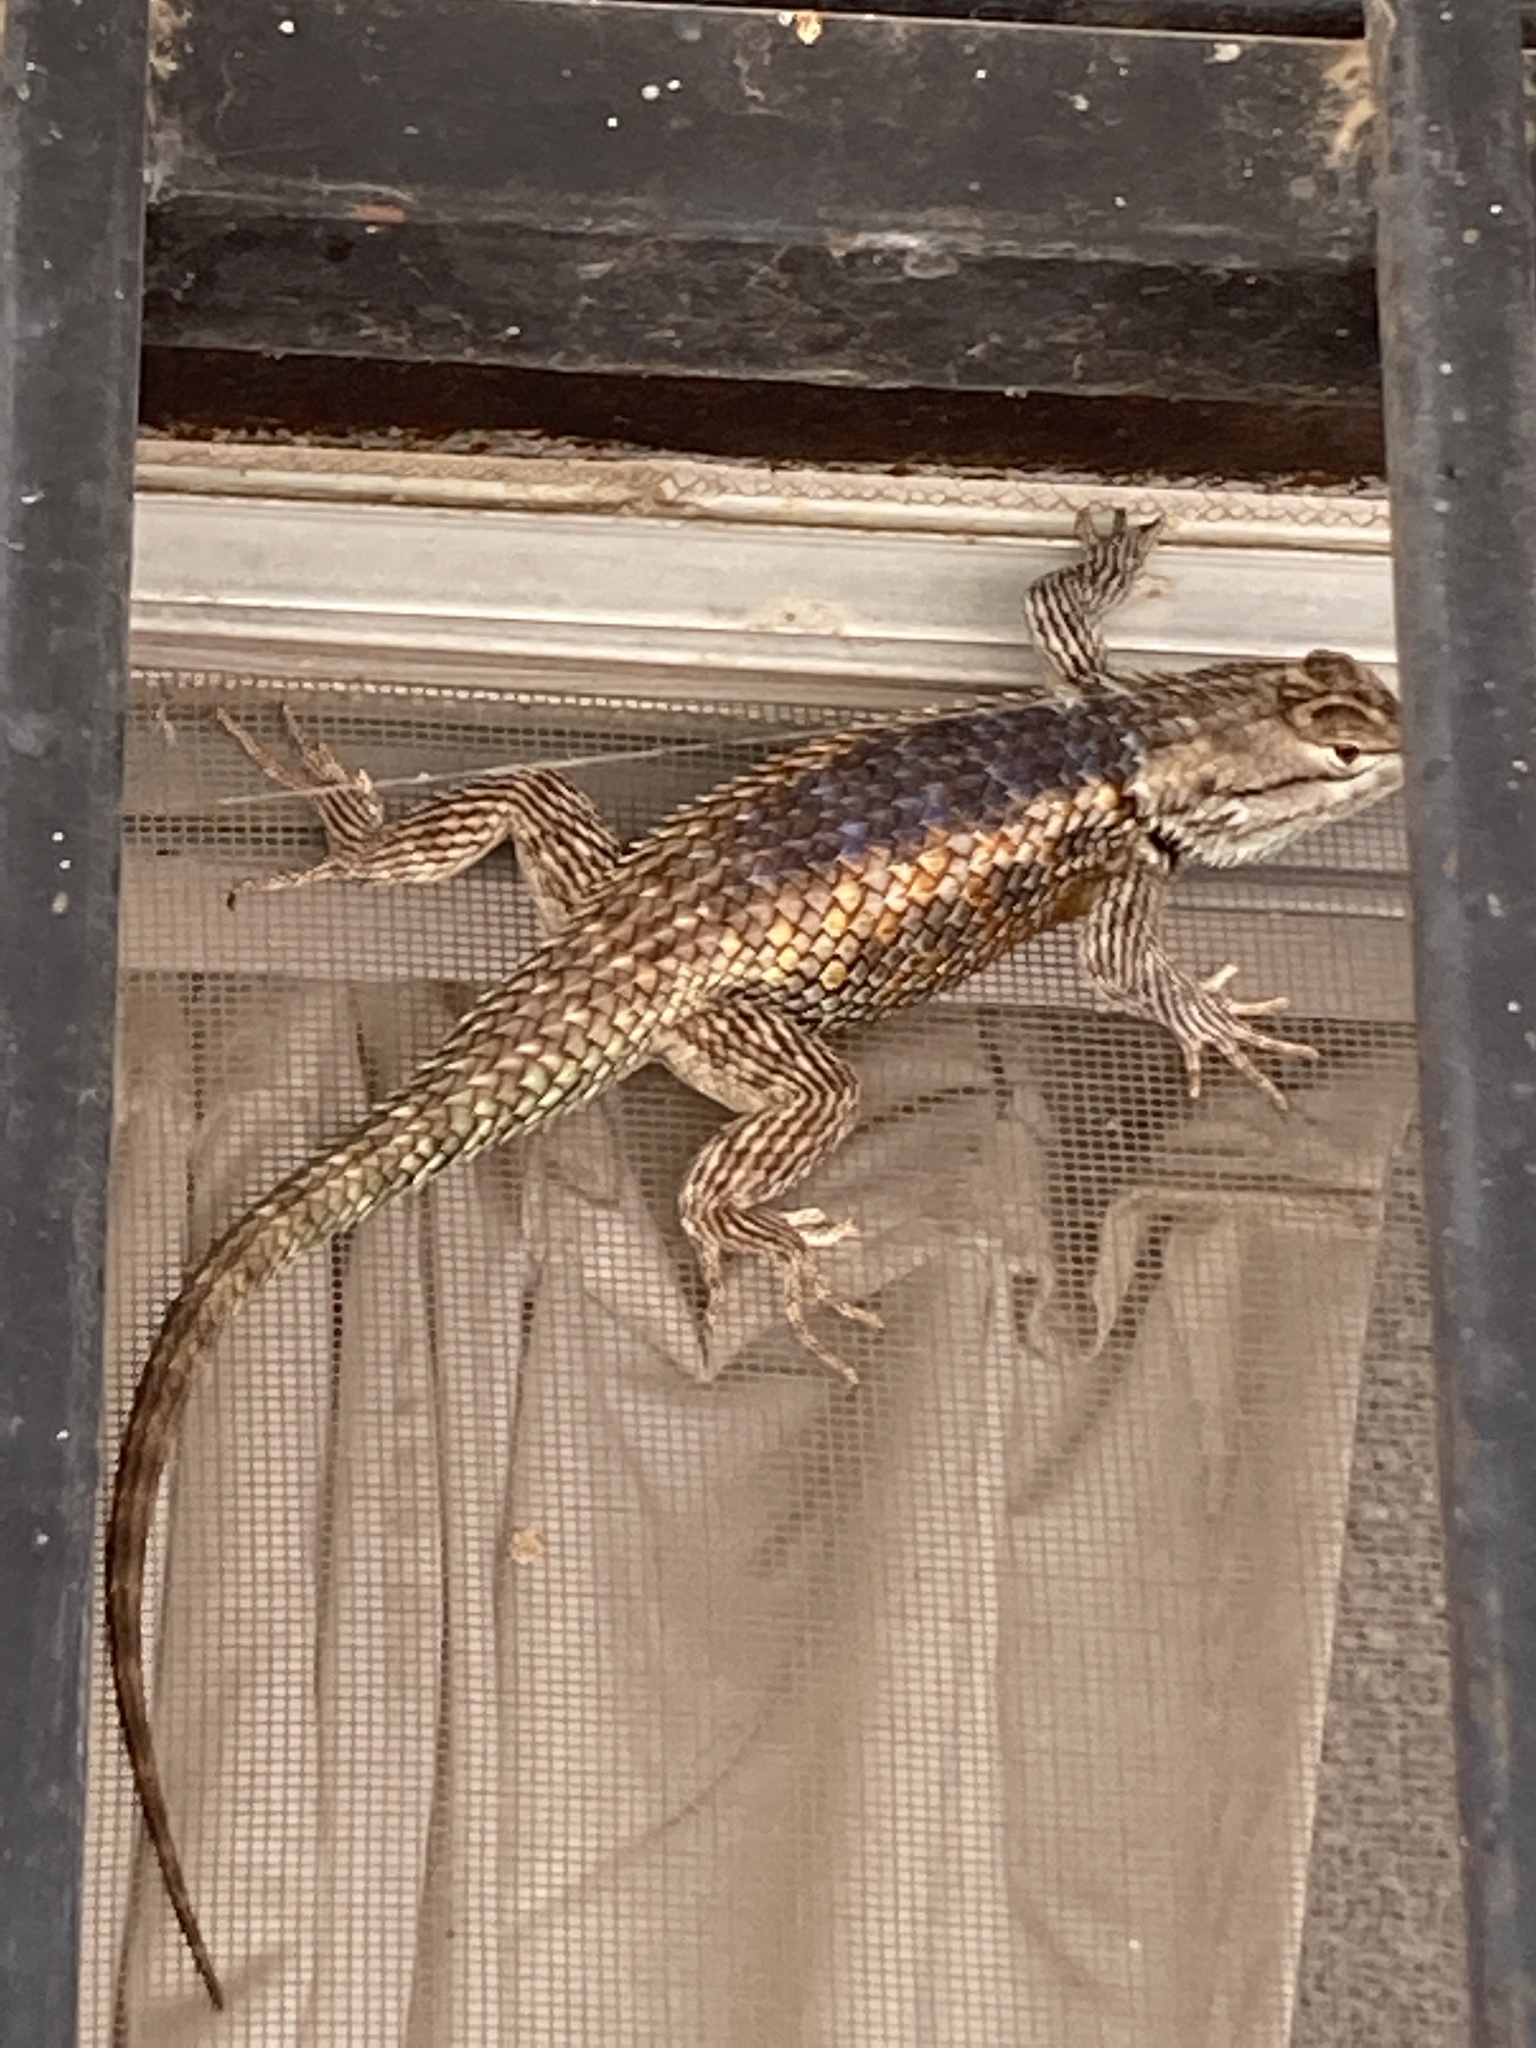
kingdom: Animalia
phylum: Chordata
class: Squamata
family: Phrynosomatidae
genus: Sceloporus
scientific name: Sceloporus magister
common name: Desert spiny lizard
